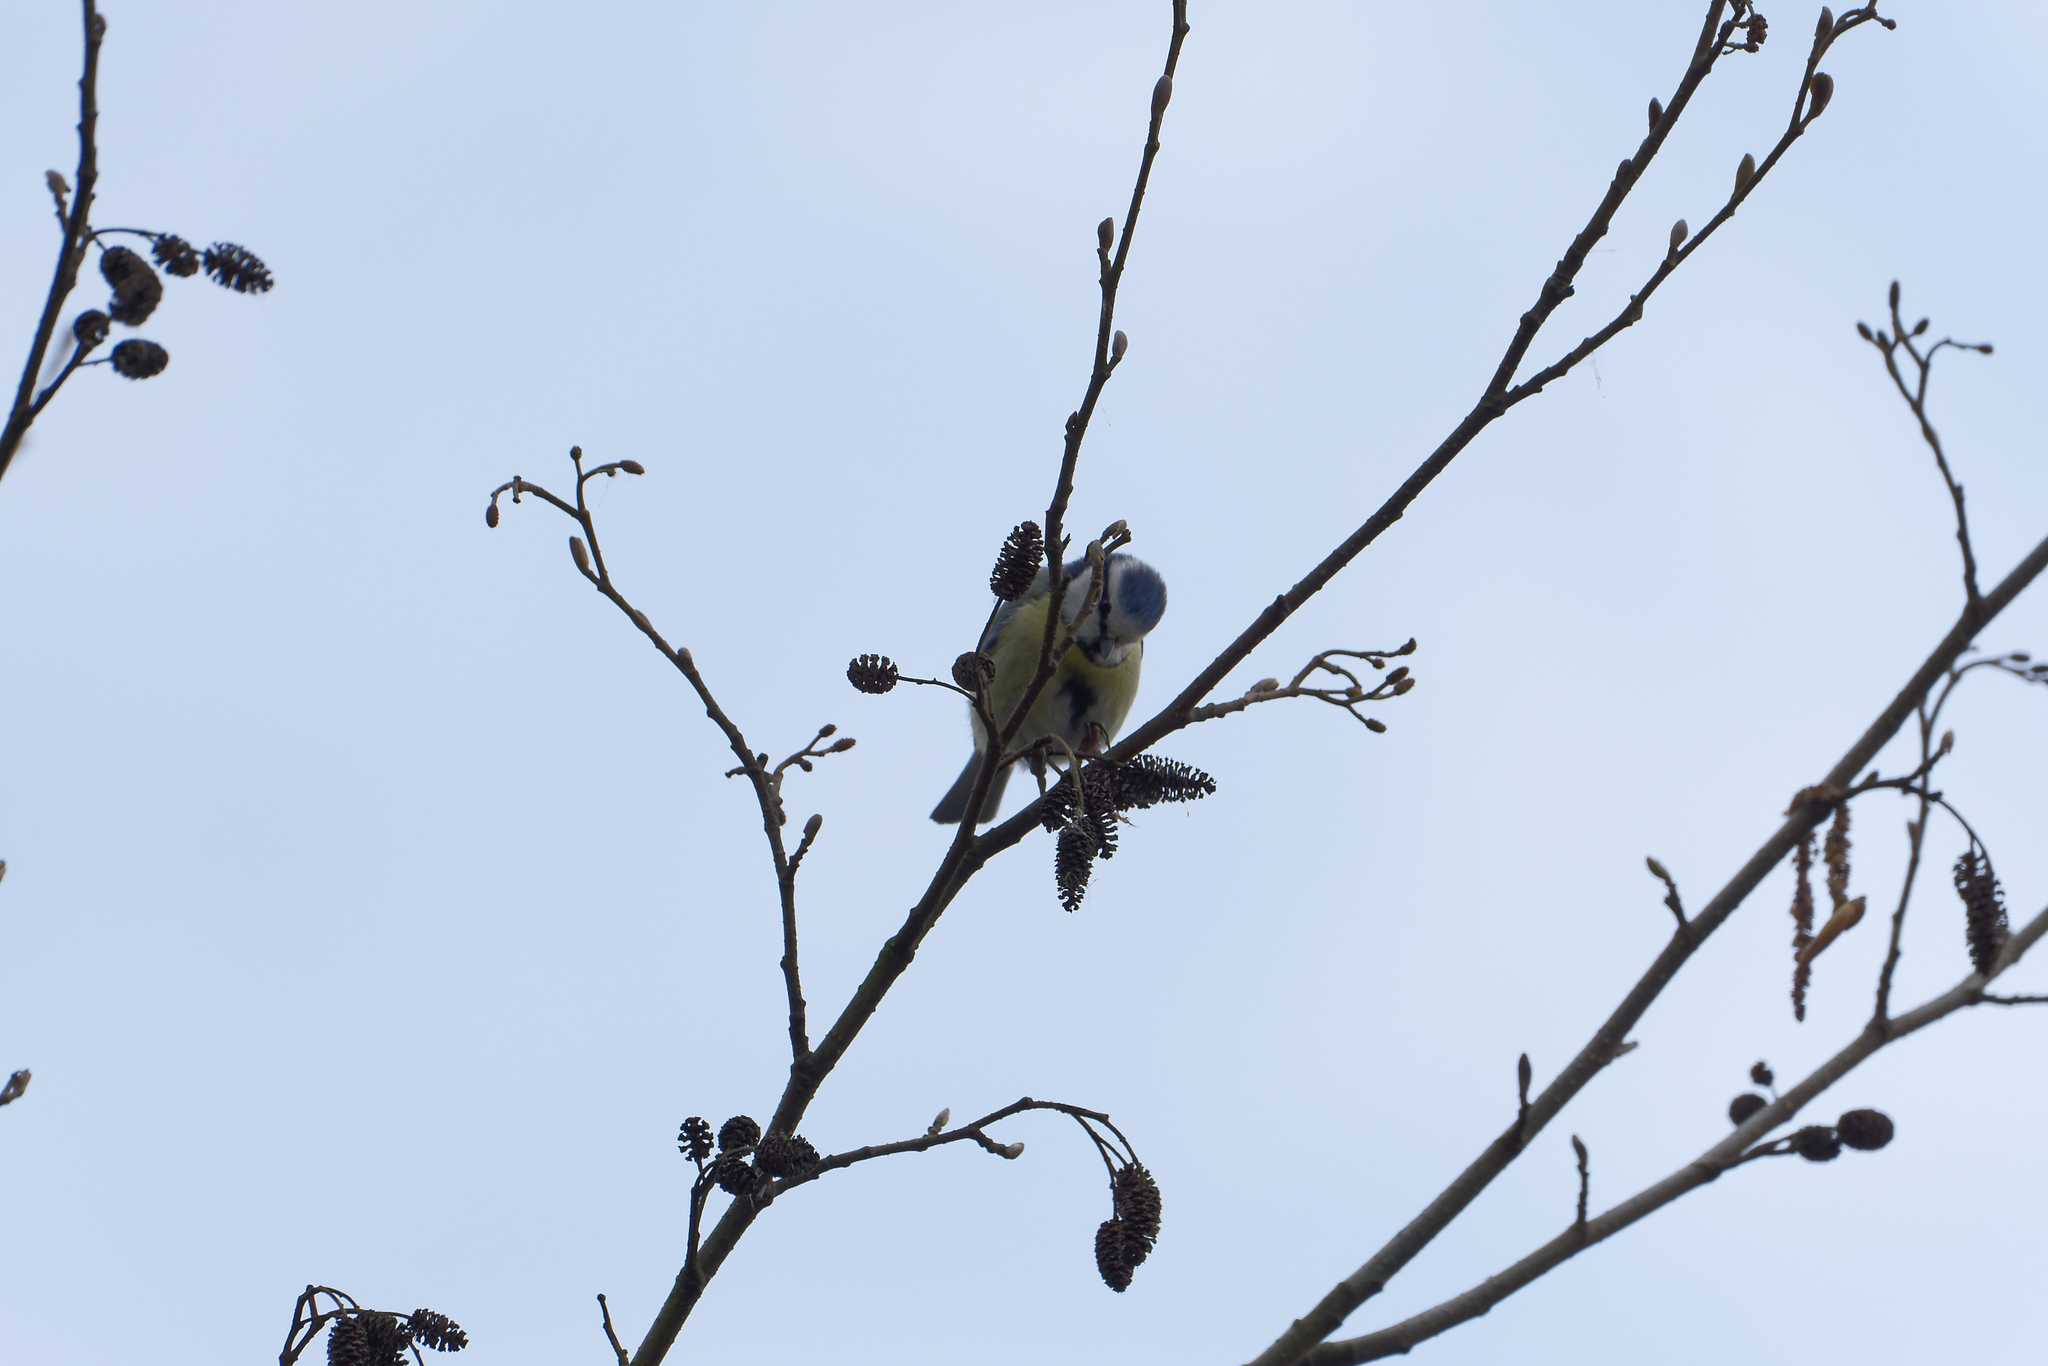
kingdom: Animalia
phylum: Chordata
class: Aves
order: Passeriformes
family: Paridae
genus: Cyanistes
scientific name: Cyanistes caeruleus
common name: Eurasian blue tit
